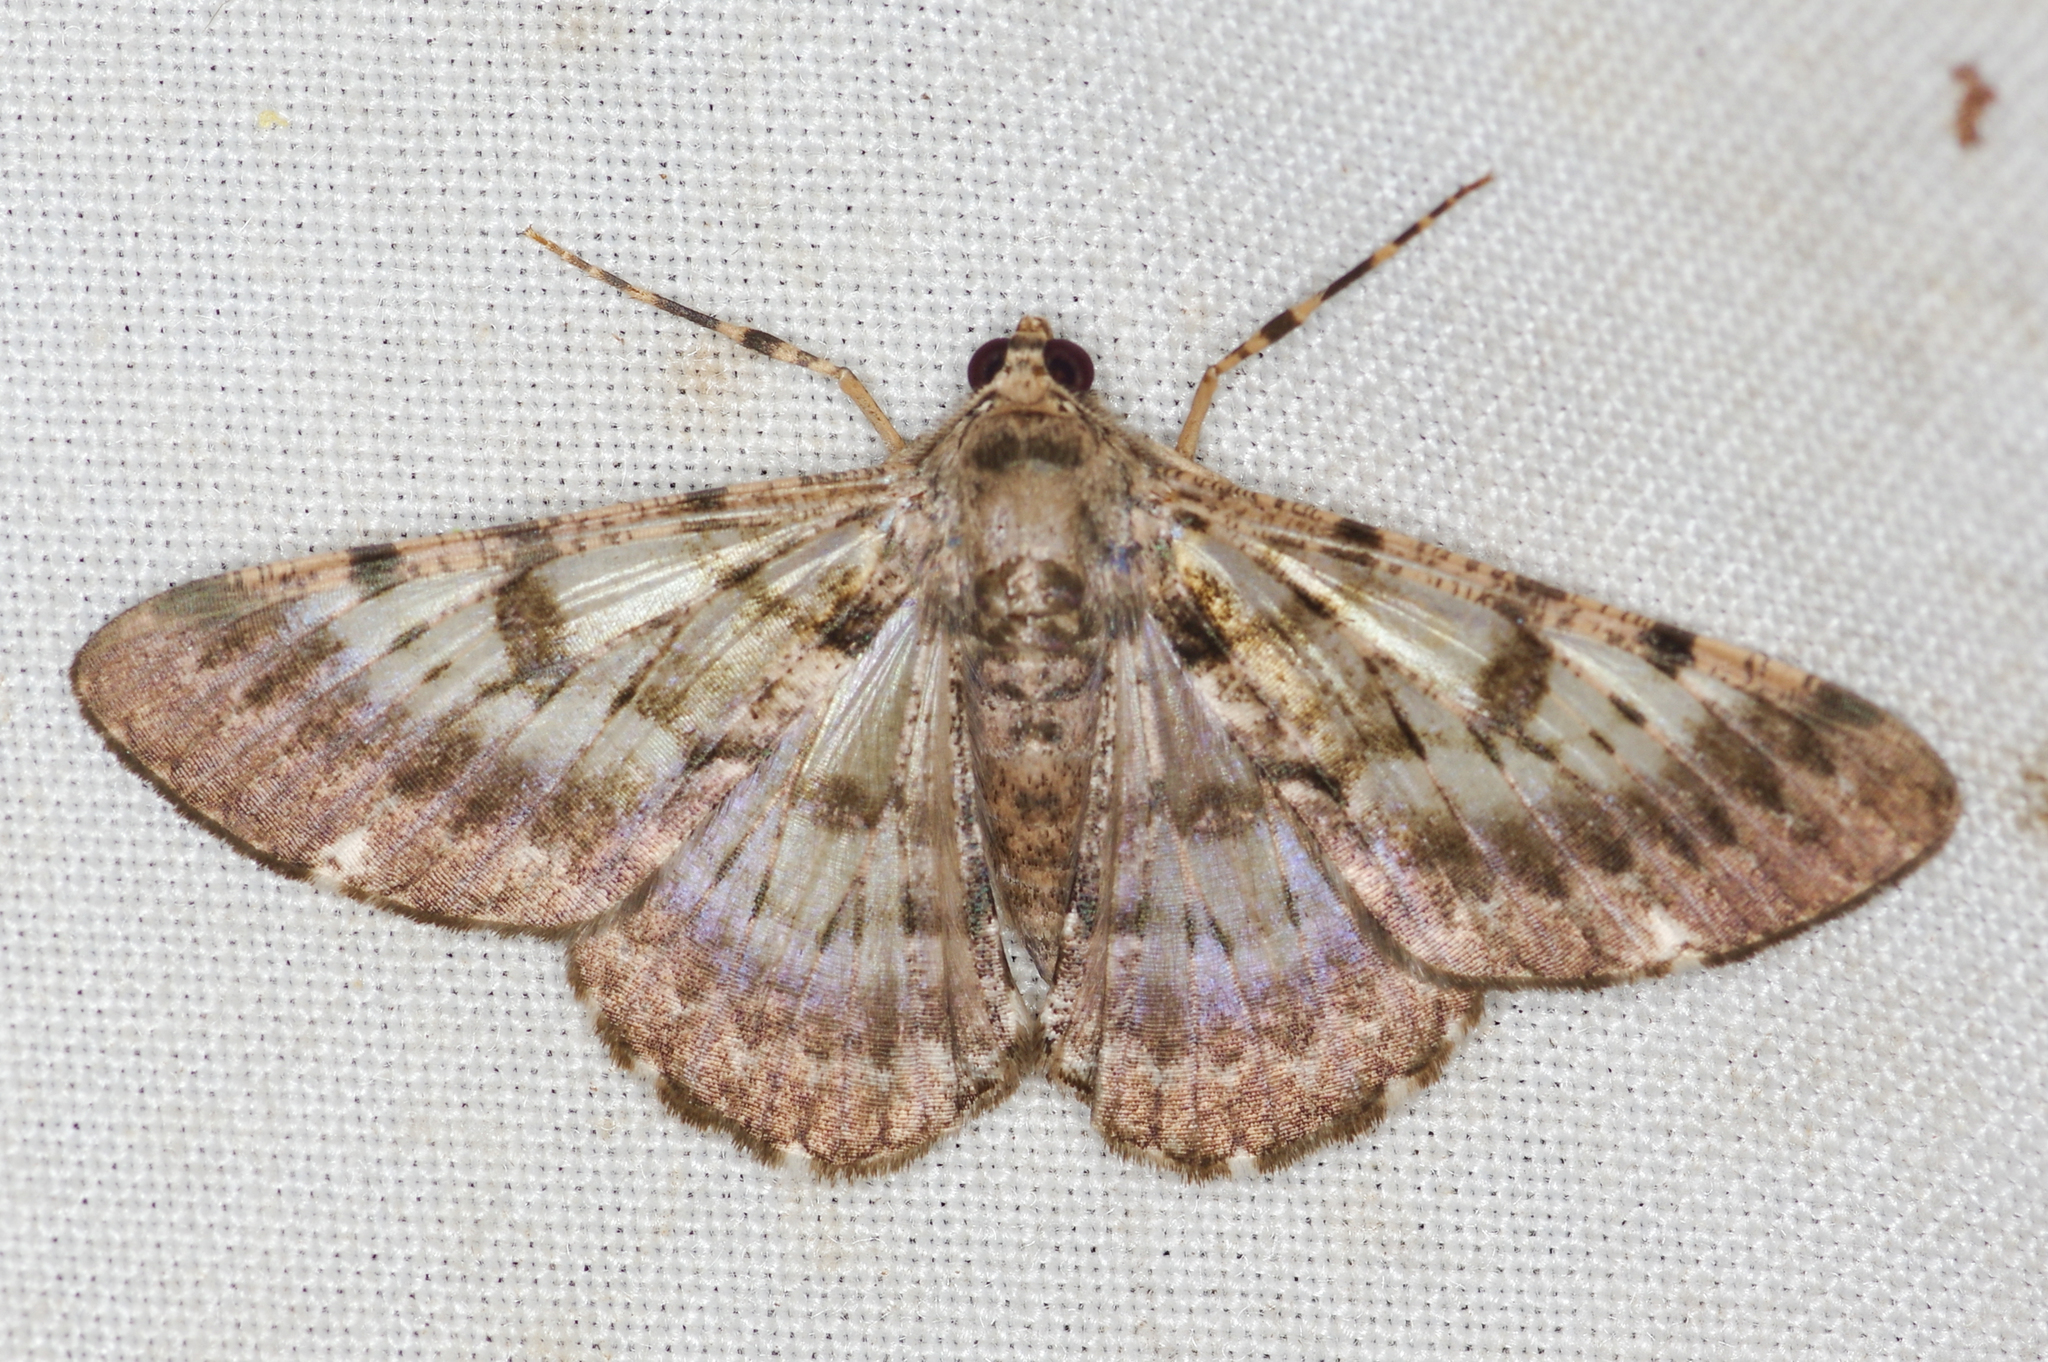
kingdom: Animalia
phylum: Arthropoda
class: Insecta
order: Lepidoptera
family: Geometridae
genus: Iridopsis
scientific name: Iridopsis eutiches
